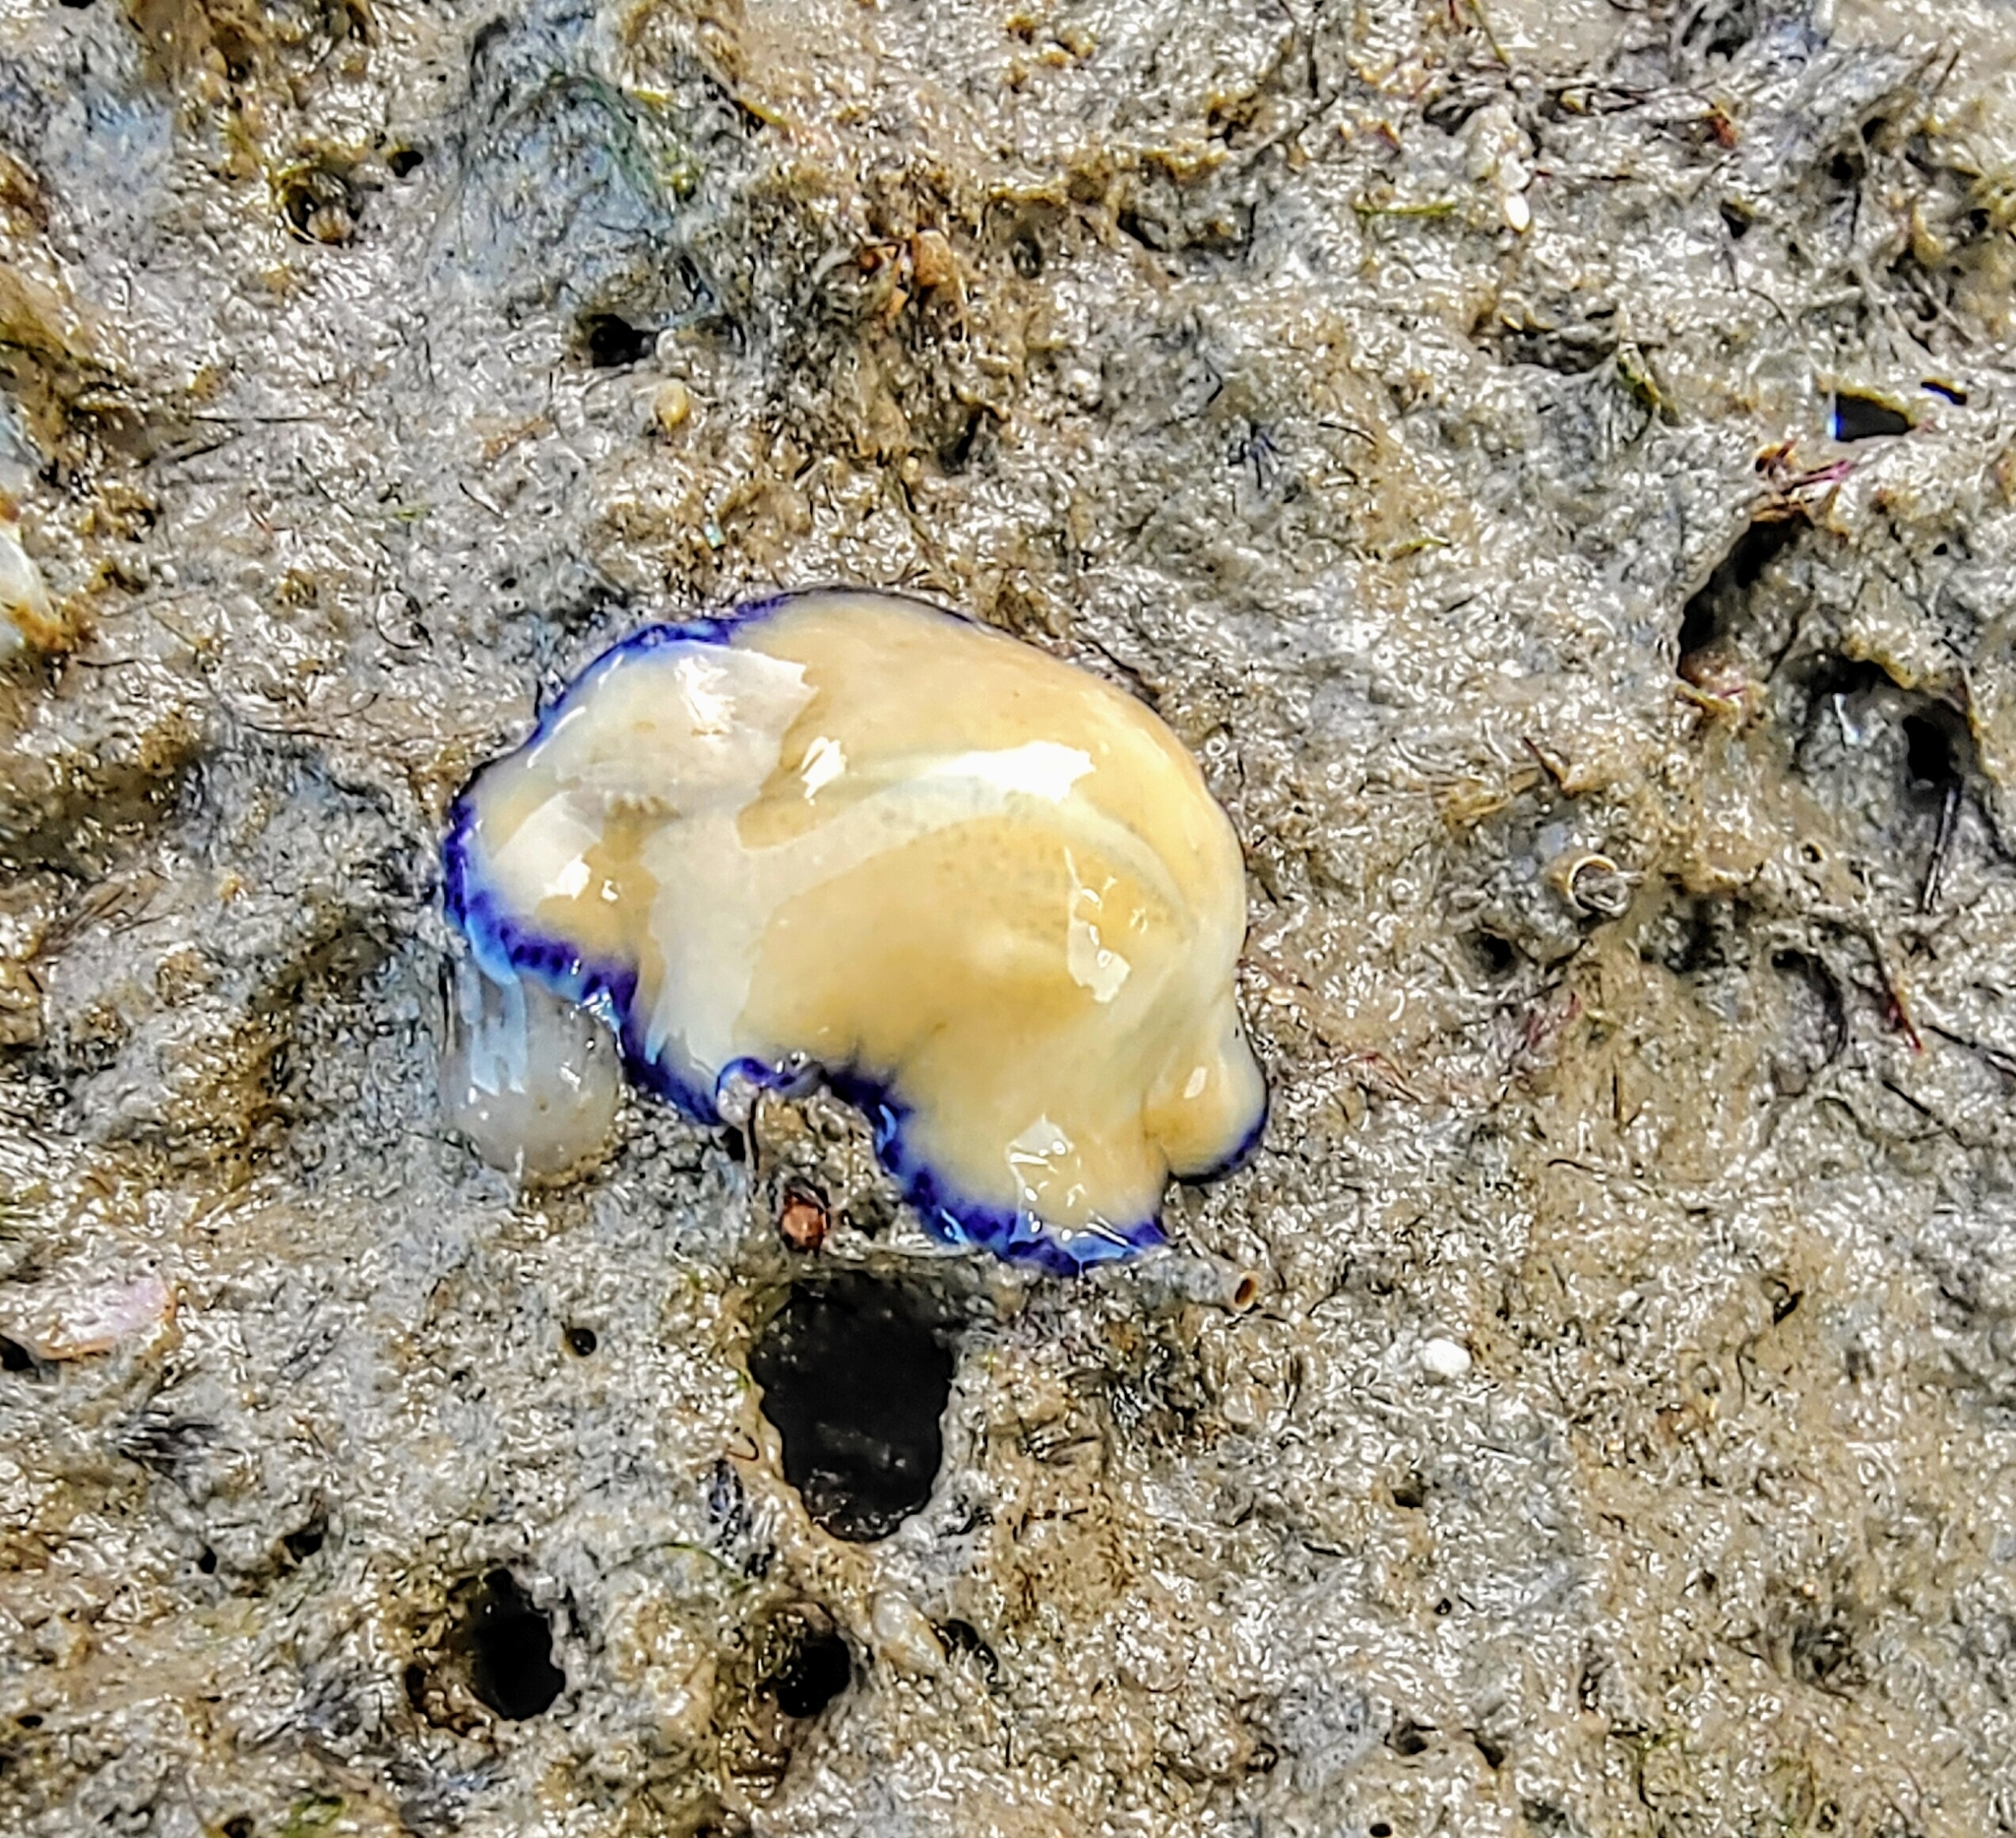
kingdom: Animalia
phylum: Platyhelminthes
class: Turbellaria
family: Pseudocerotidae
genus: Pseudoceros
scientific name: Pseudoceros indicus
